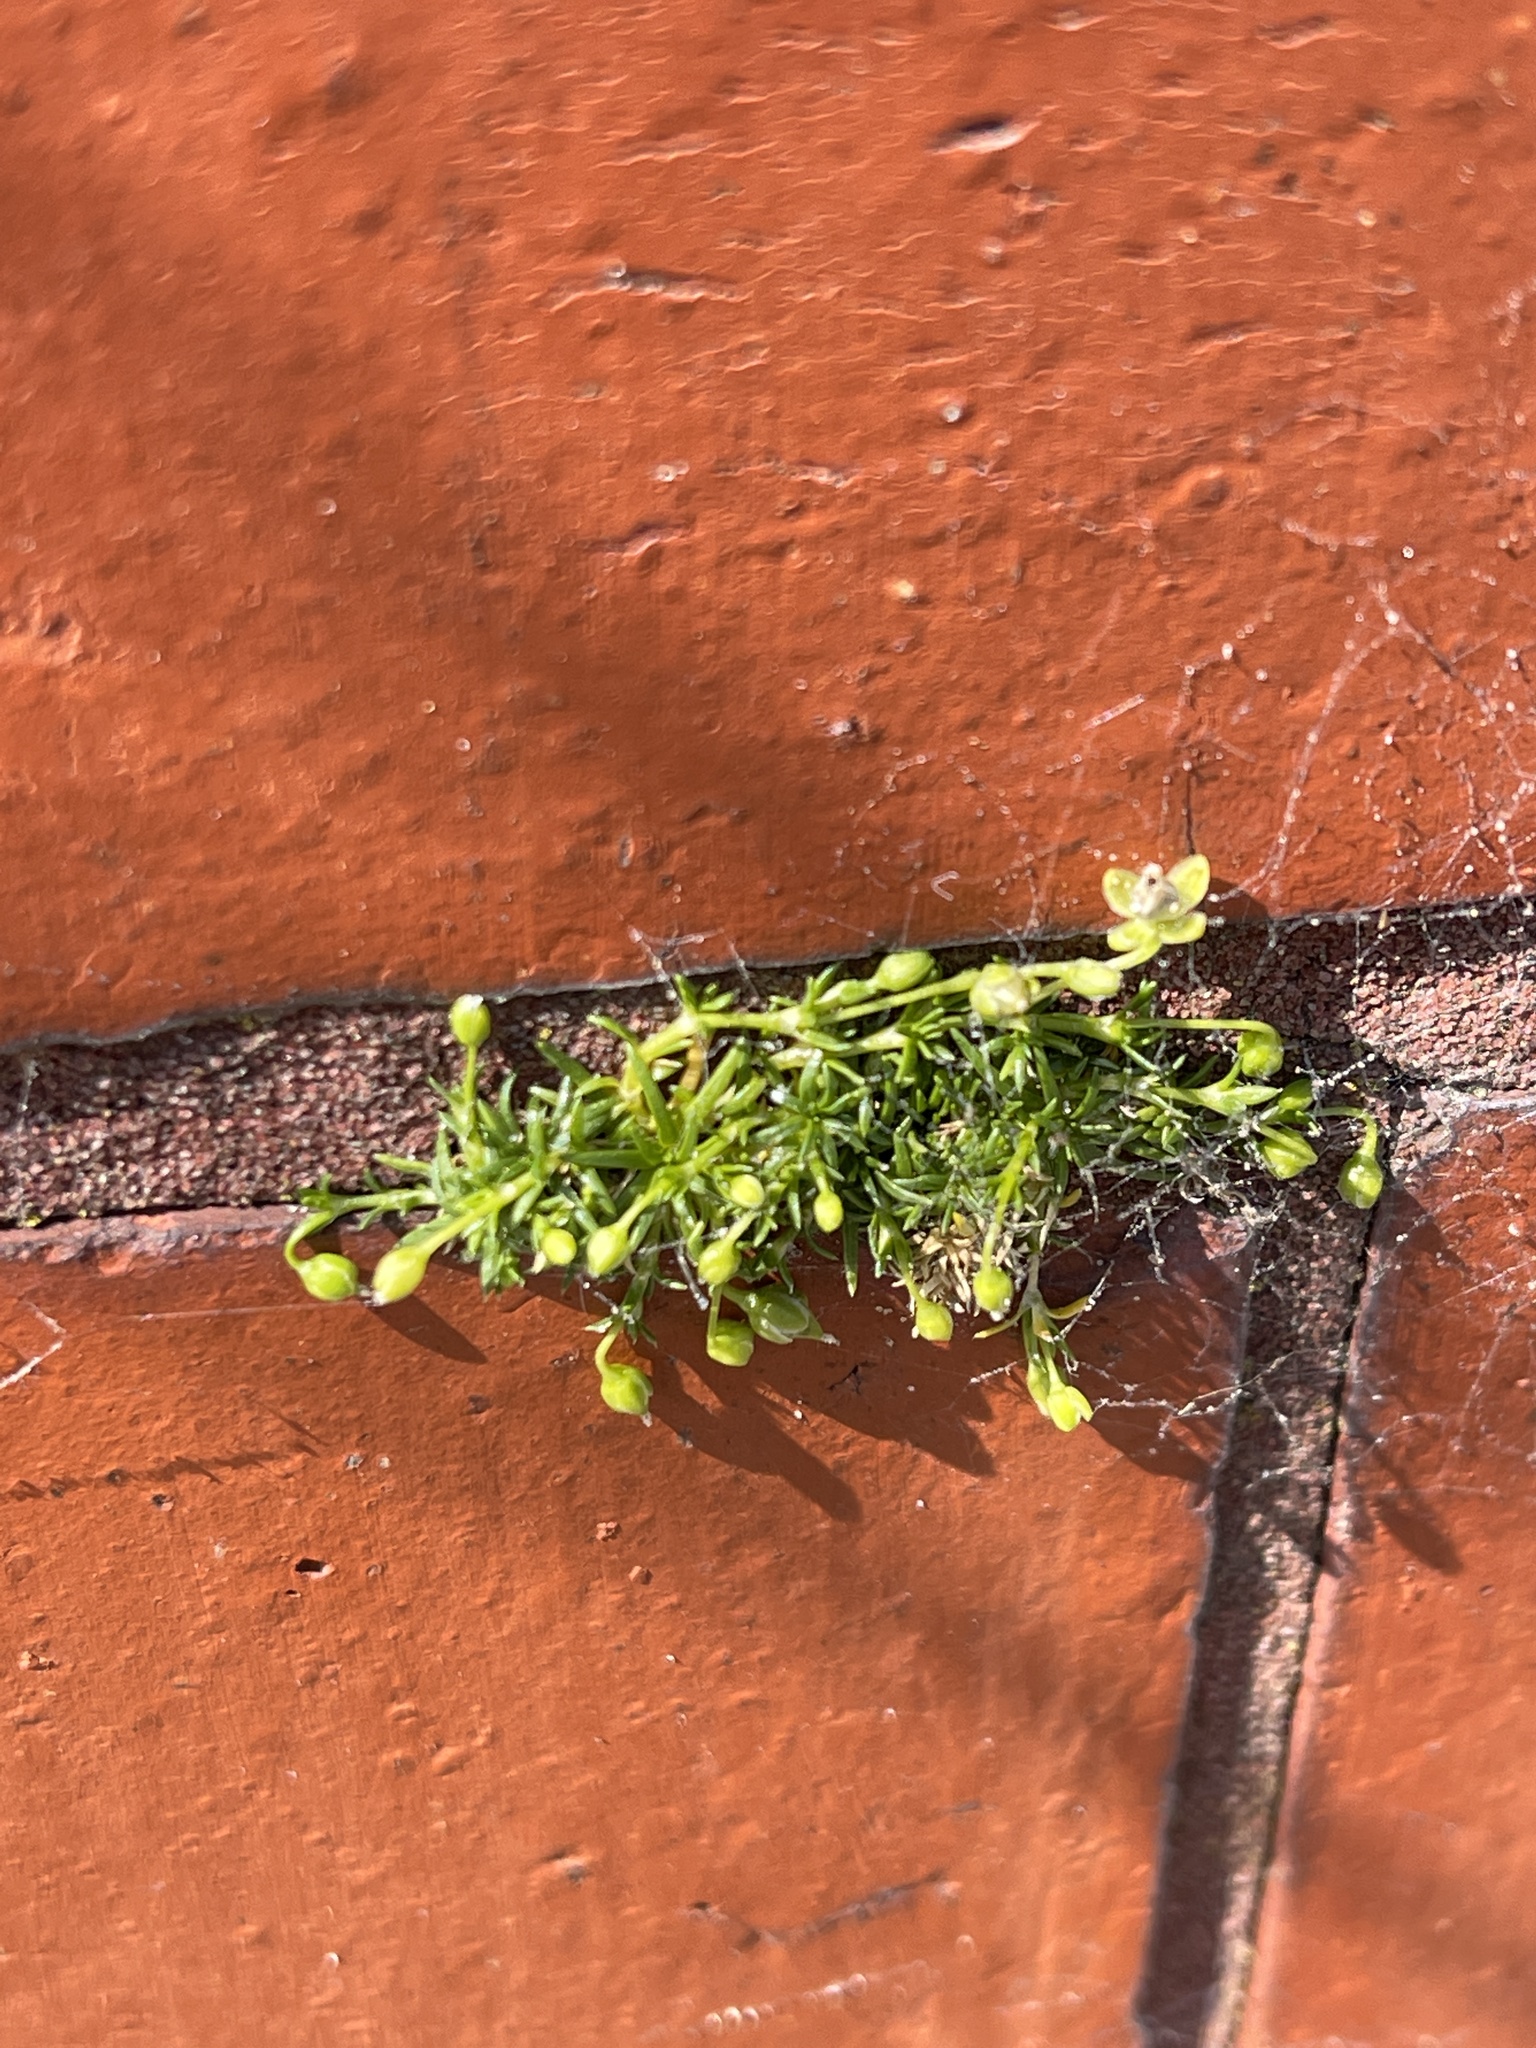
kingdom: Plantae
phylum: Tracheophyta
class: Magnoliopsida
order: Caryophyllales
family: Caryophyllaceae
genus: Sagina
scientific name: Sagina procumbens
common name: Procumbent pearlwort
